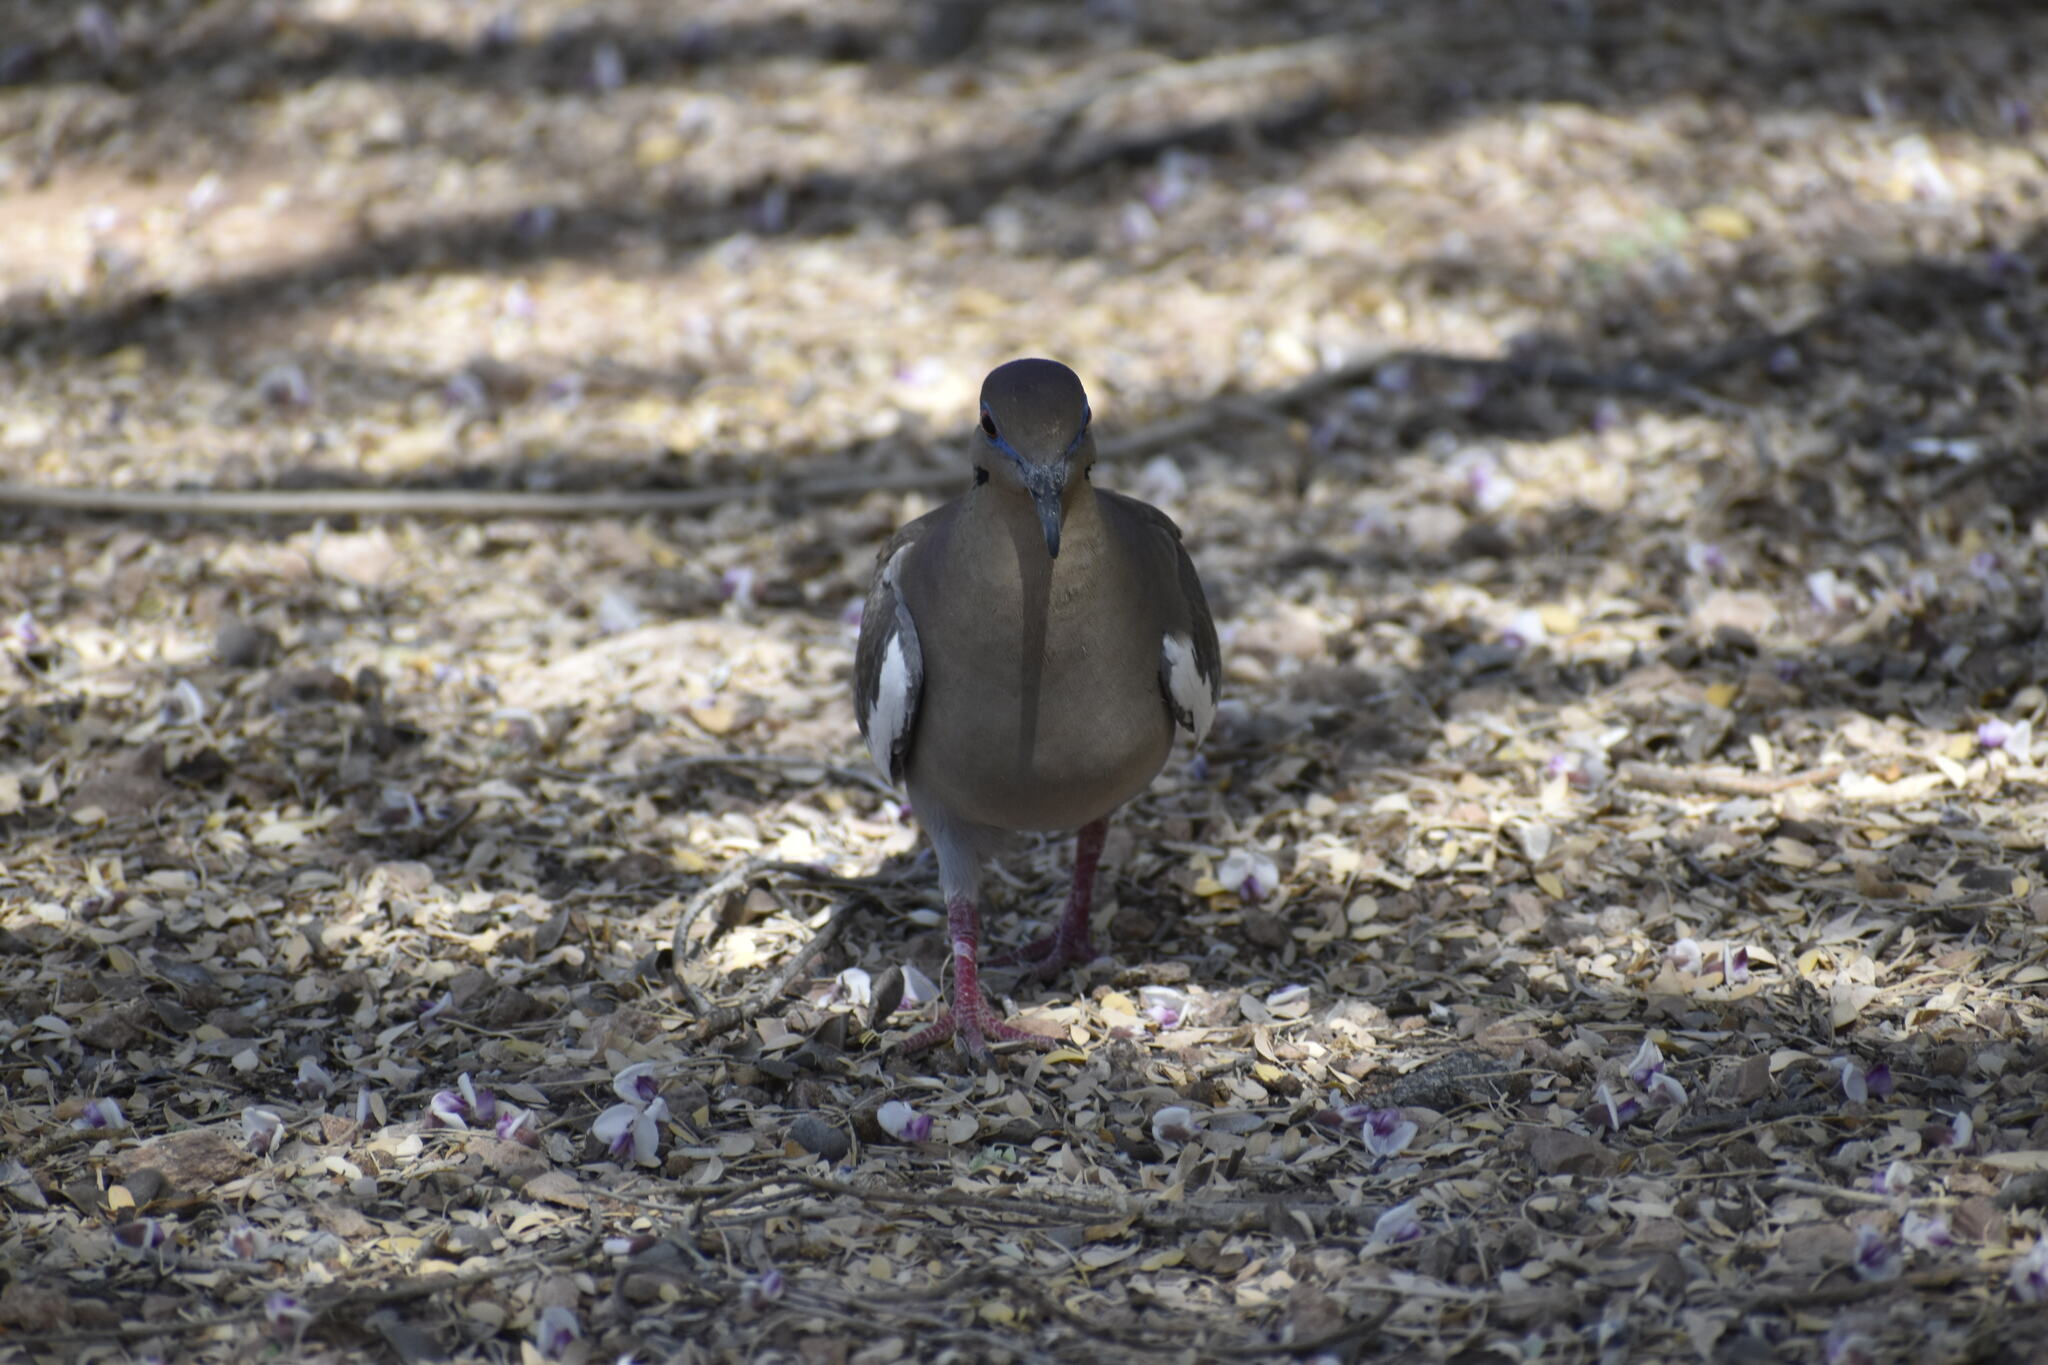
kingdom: Animalia
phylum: Chordata
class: Aves
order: Columbiformes
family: Columbidae
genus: Zenaida
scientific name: Zenaida asiatica
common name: White-winged dove
